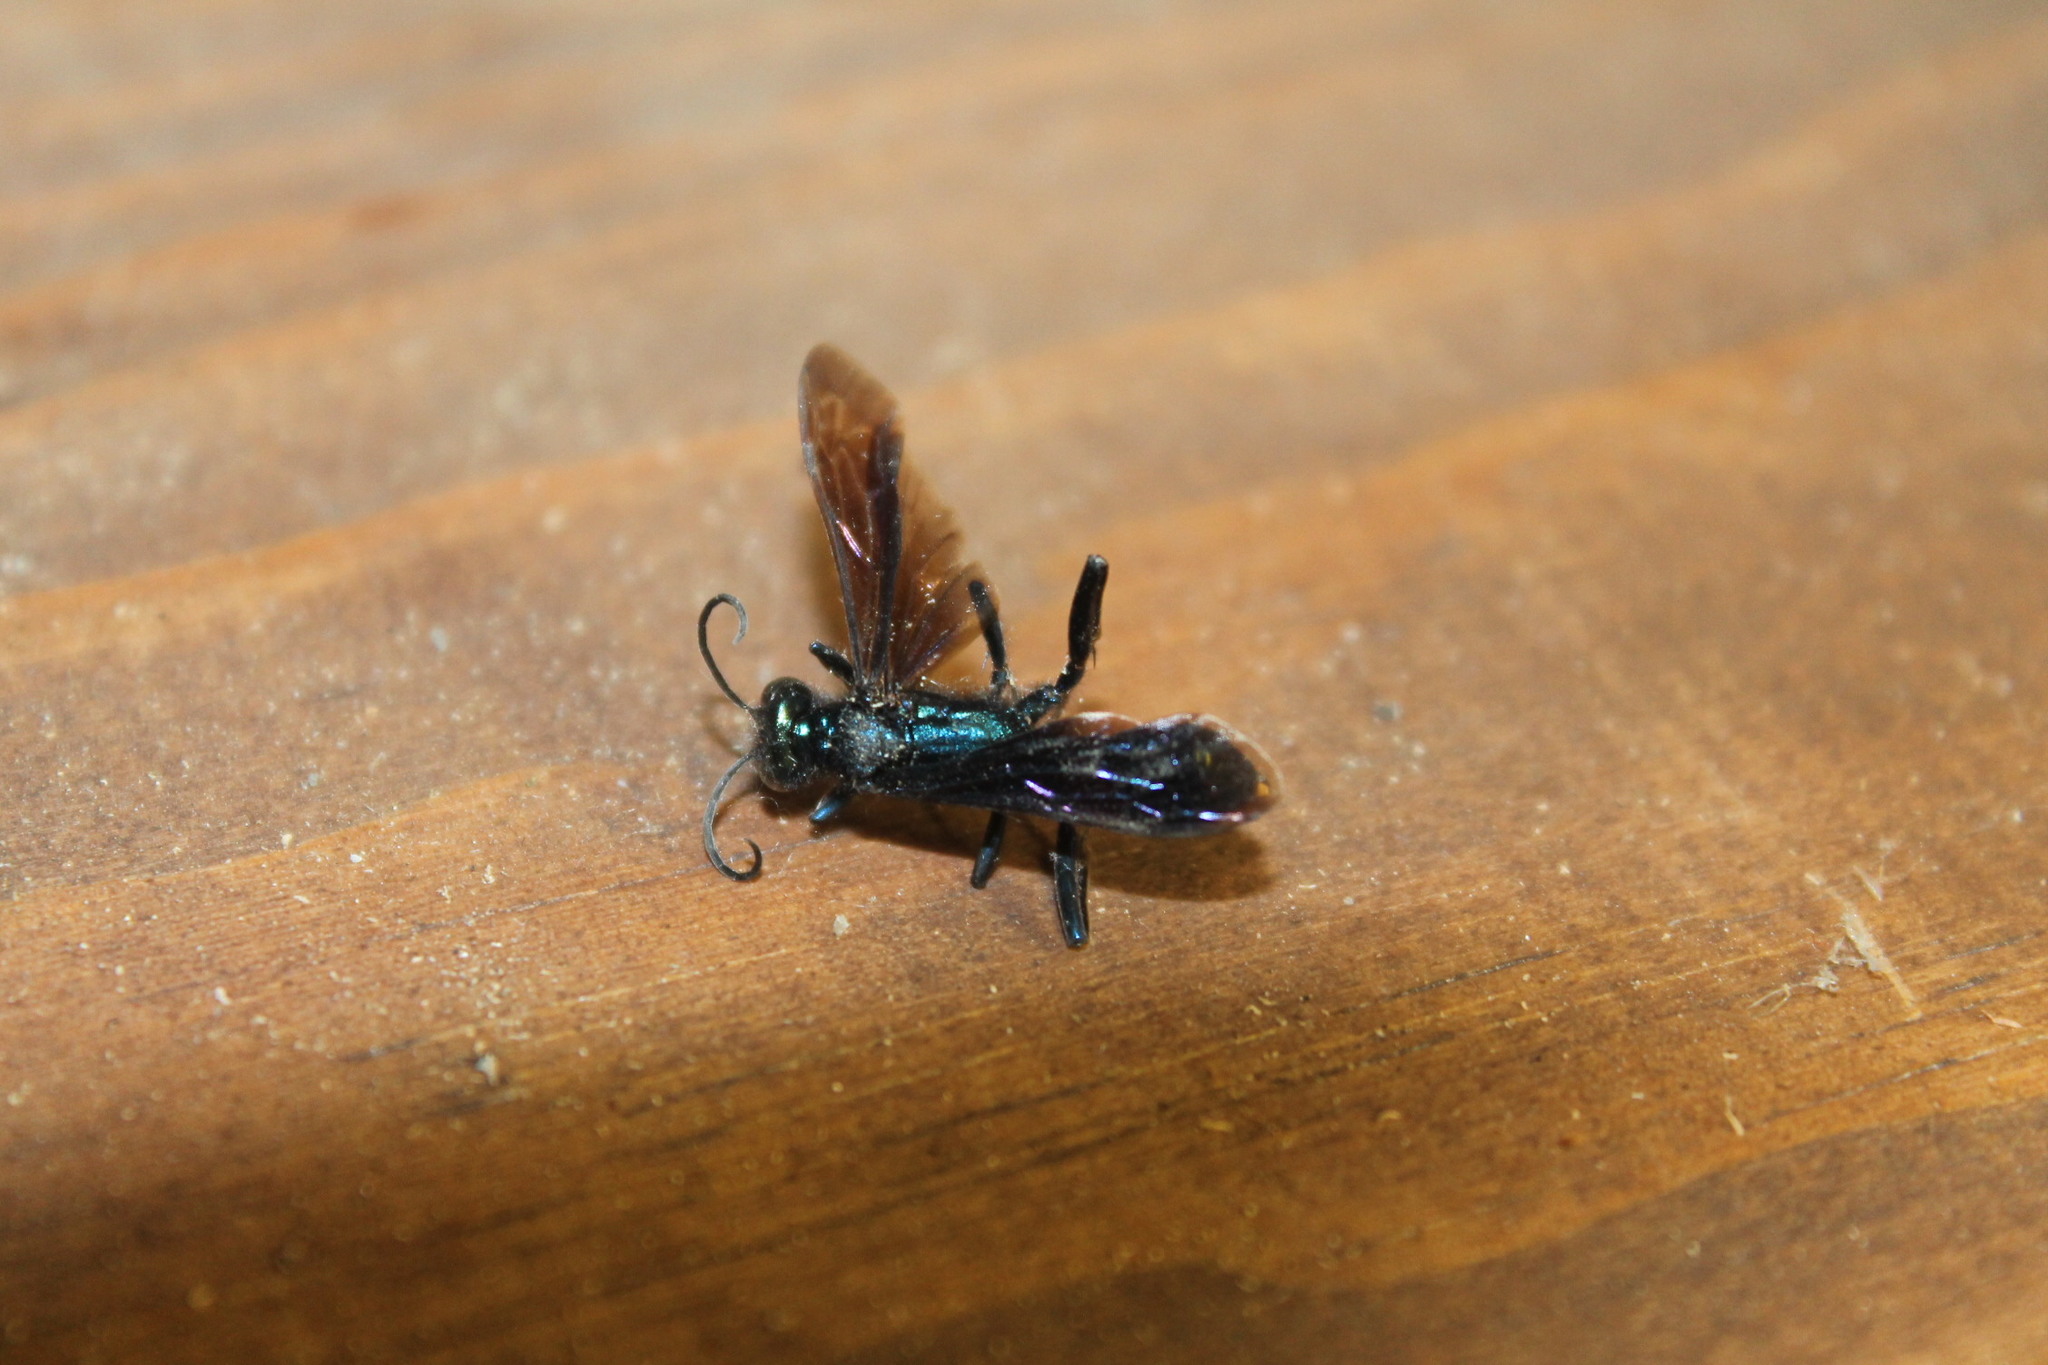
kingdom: Animalia
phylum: Arthropoda
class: Insecta
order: Hymenoptera
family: Sphecidae
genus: Chalybion
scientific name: Chalybion californicum
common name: Mud dauber
